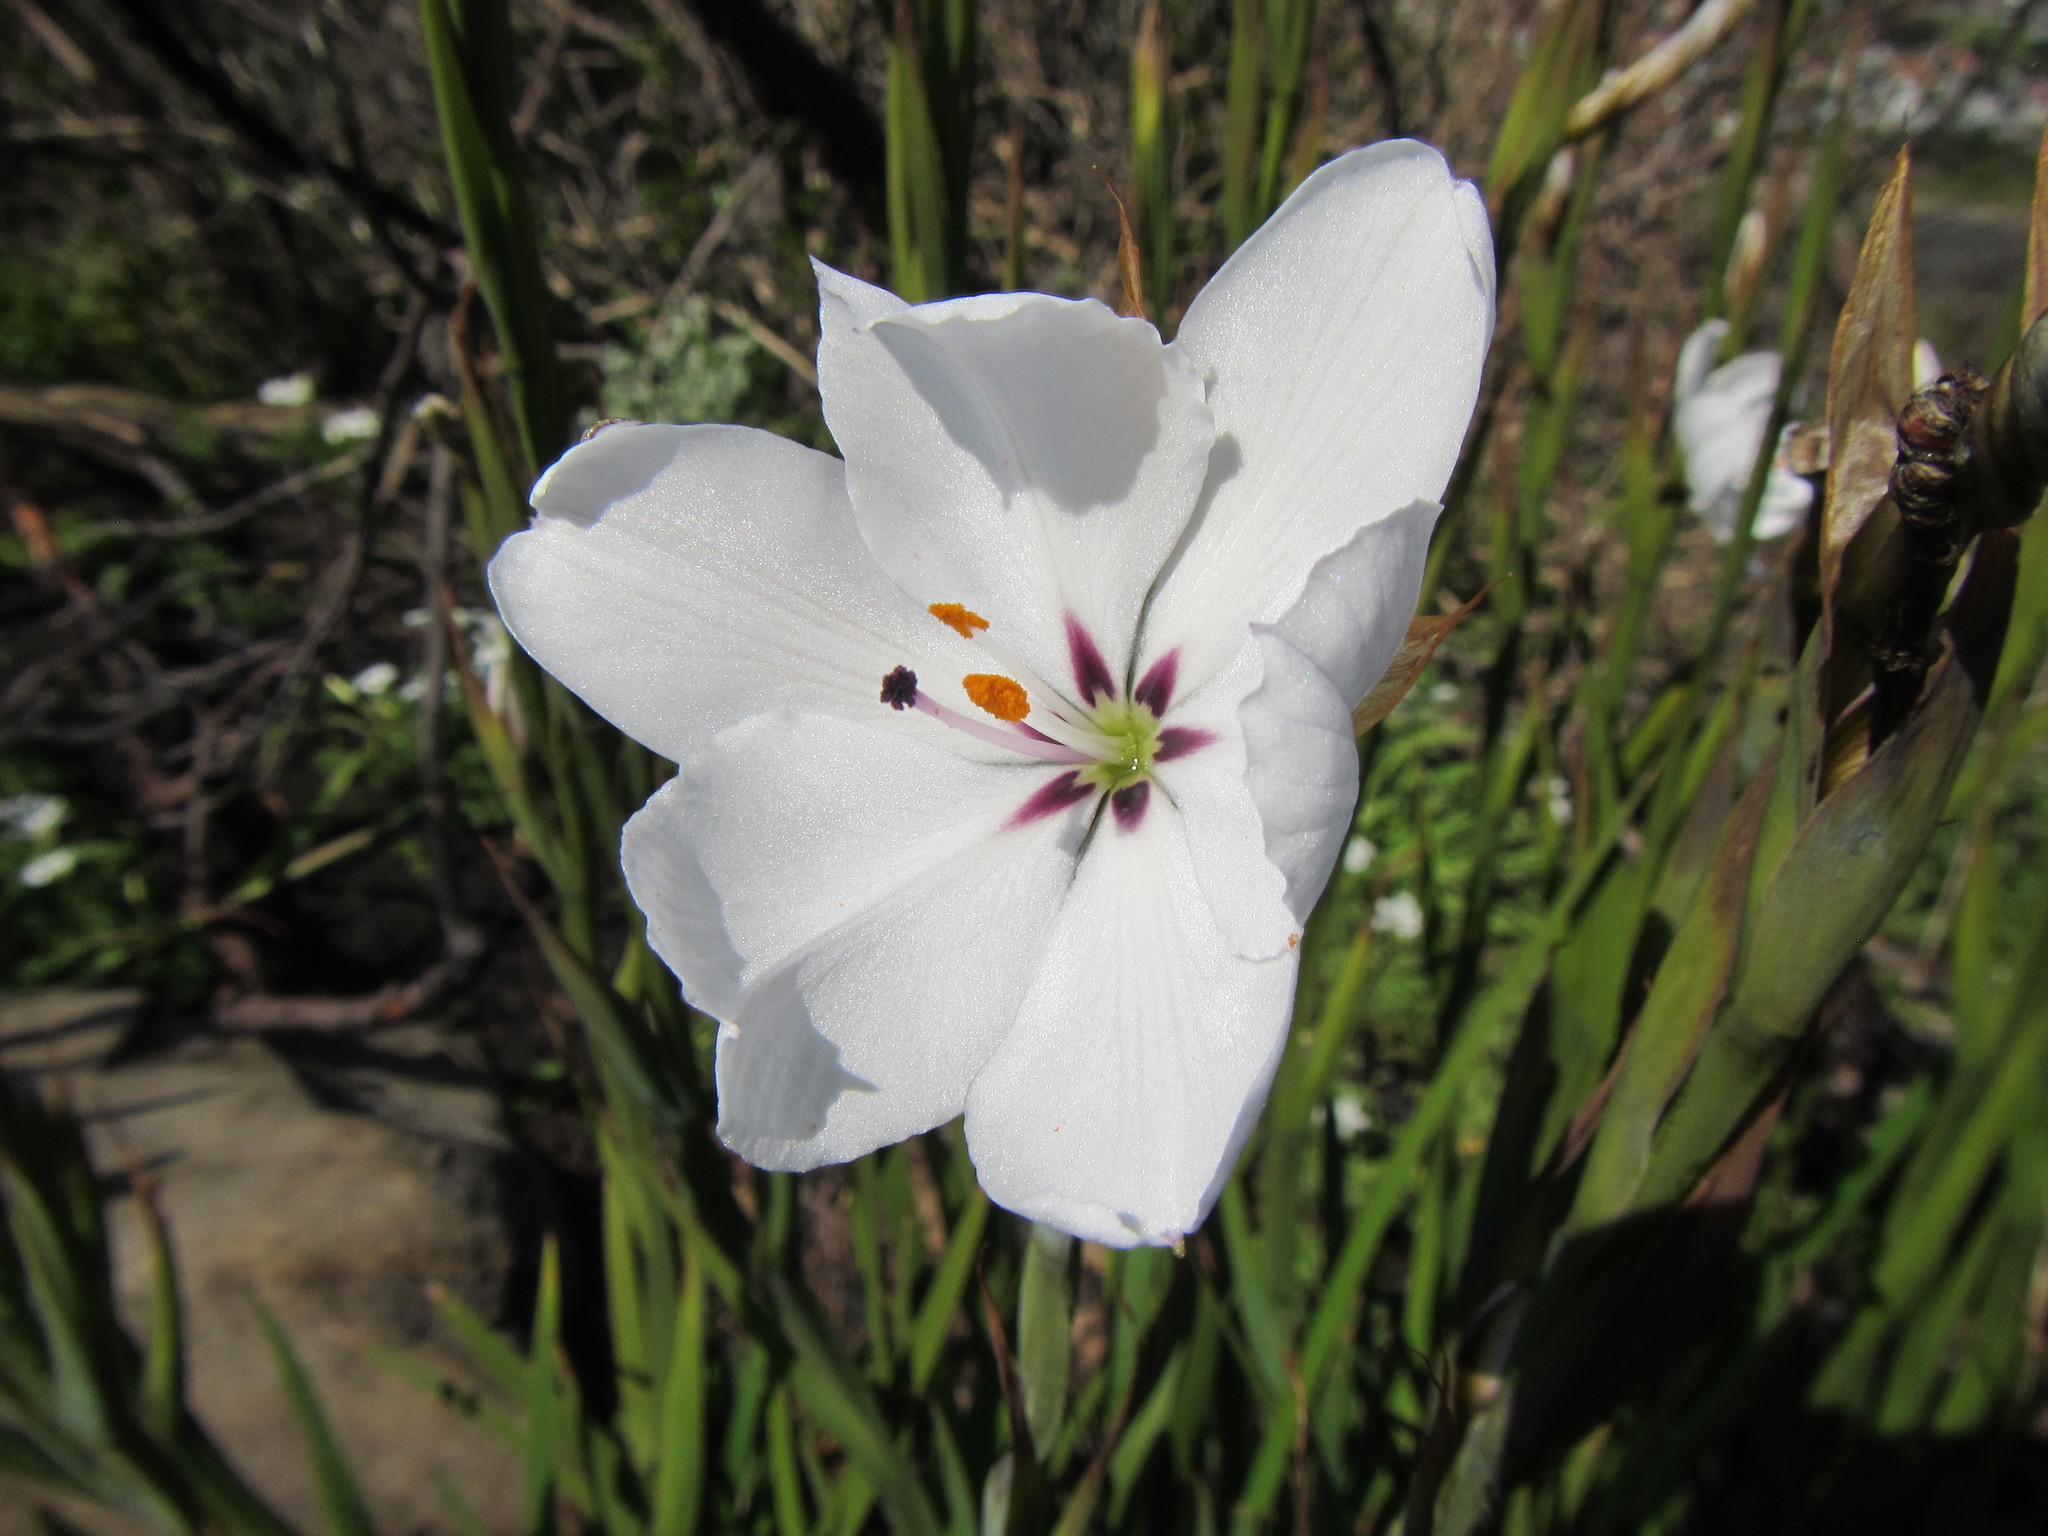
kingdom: Plantae
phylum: Tracheophyta
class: Liliopsida
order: Asparagales
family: Iridaceae
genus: Aristea
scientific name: Aristea spiralis
